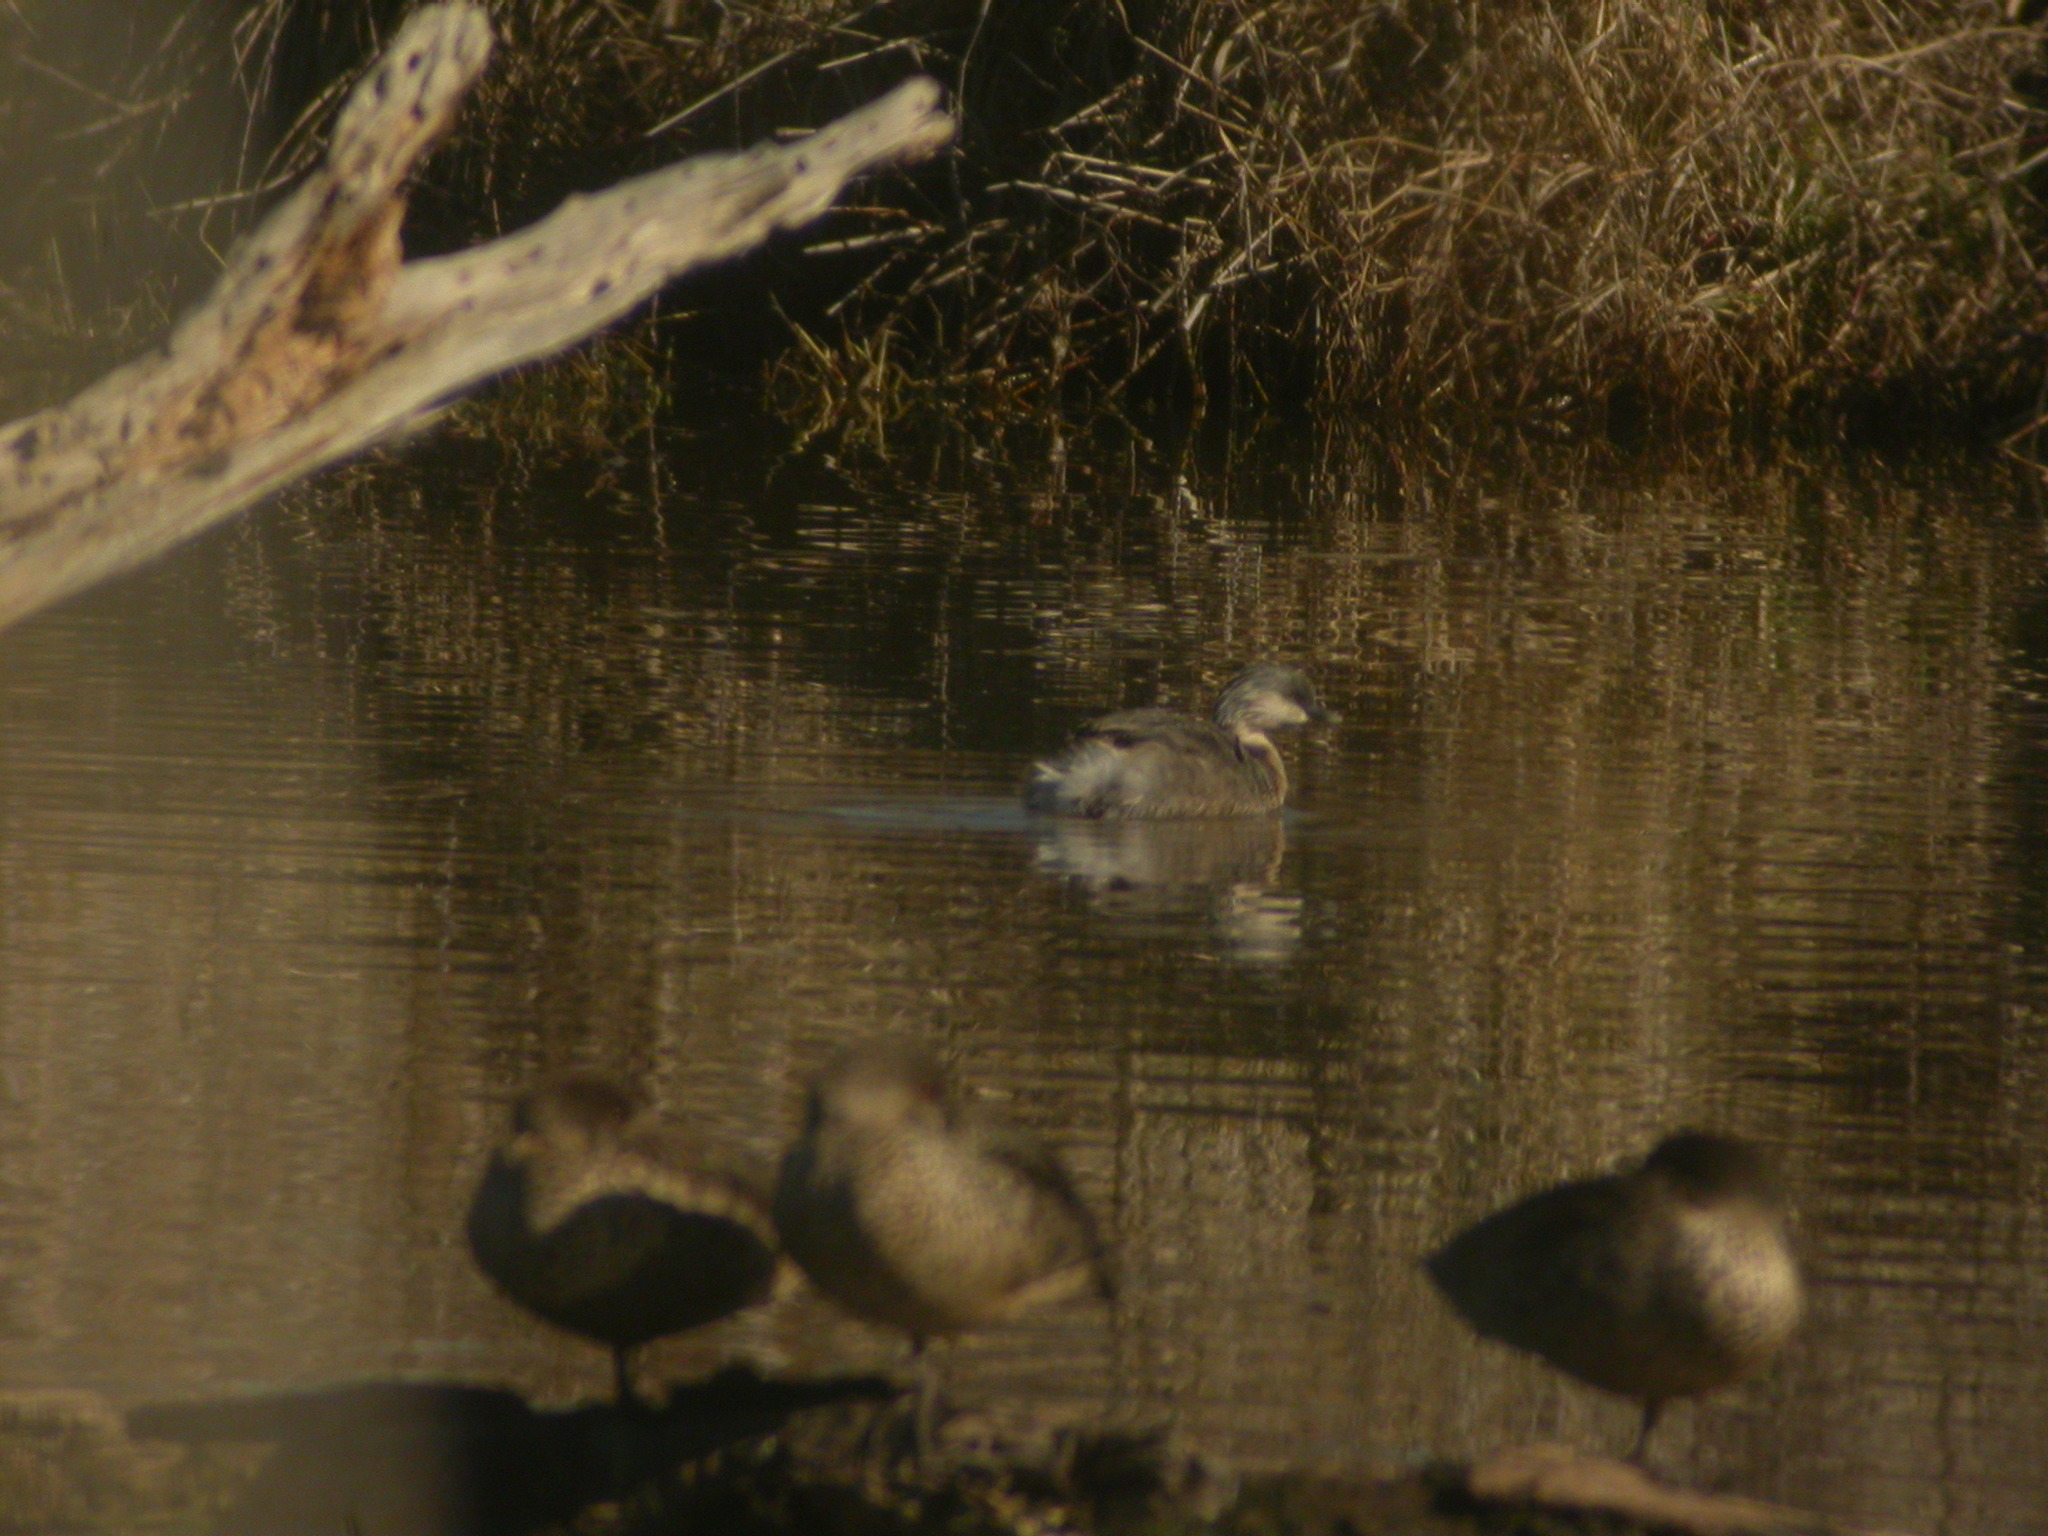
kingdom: Animalia
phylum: Chordata
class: Aves
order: Podicipediformes
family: Podicipedidae
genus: Tachybaptus
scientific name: Tachybaptus novaehollandiae
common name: Australasian grebe
